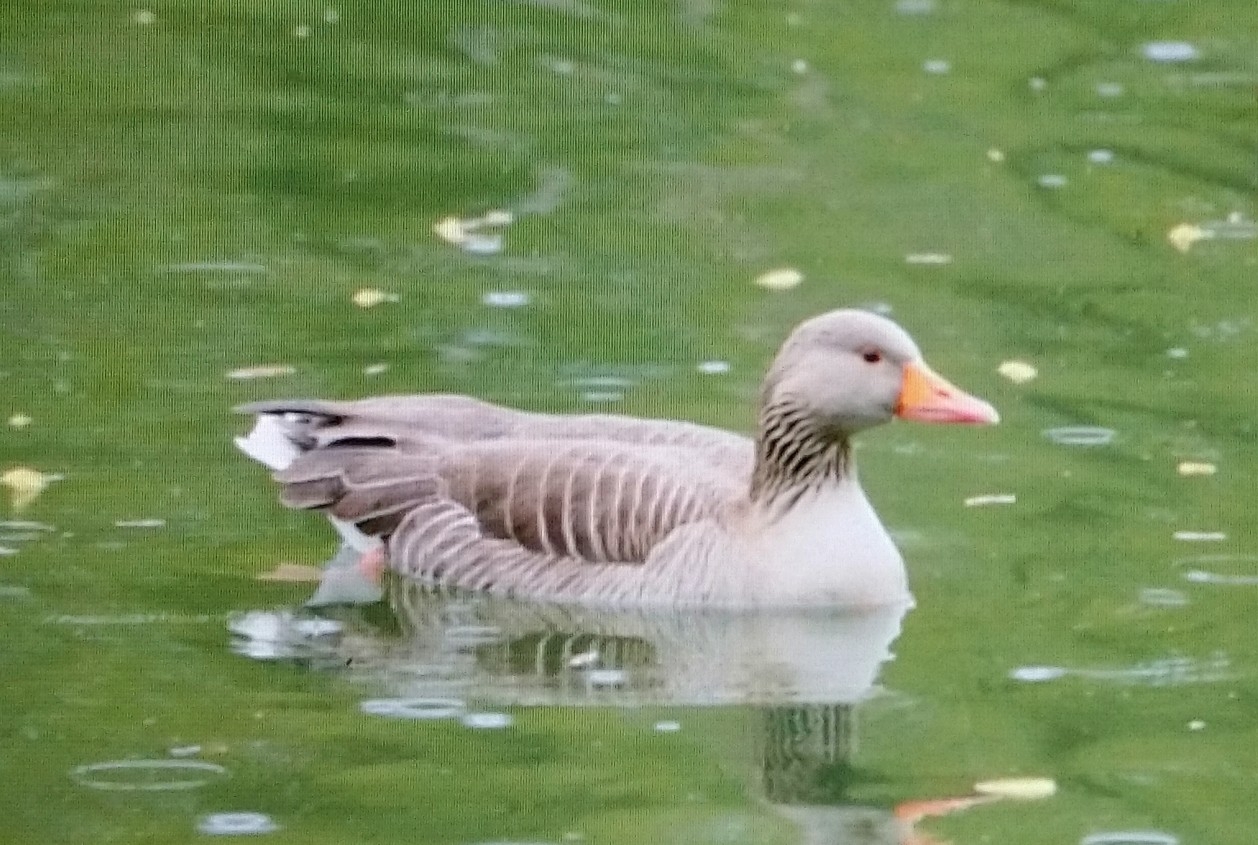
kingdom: Animalia
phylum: Chordata
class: Aves
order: Anseriformes
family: Anatidae
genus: Anser
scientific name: Anser anser
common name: Greylag goose
